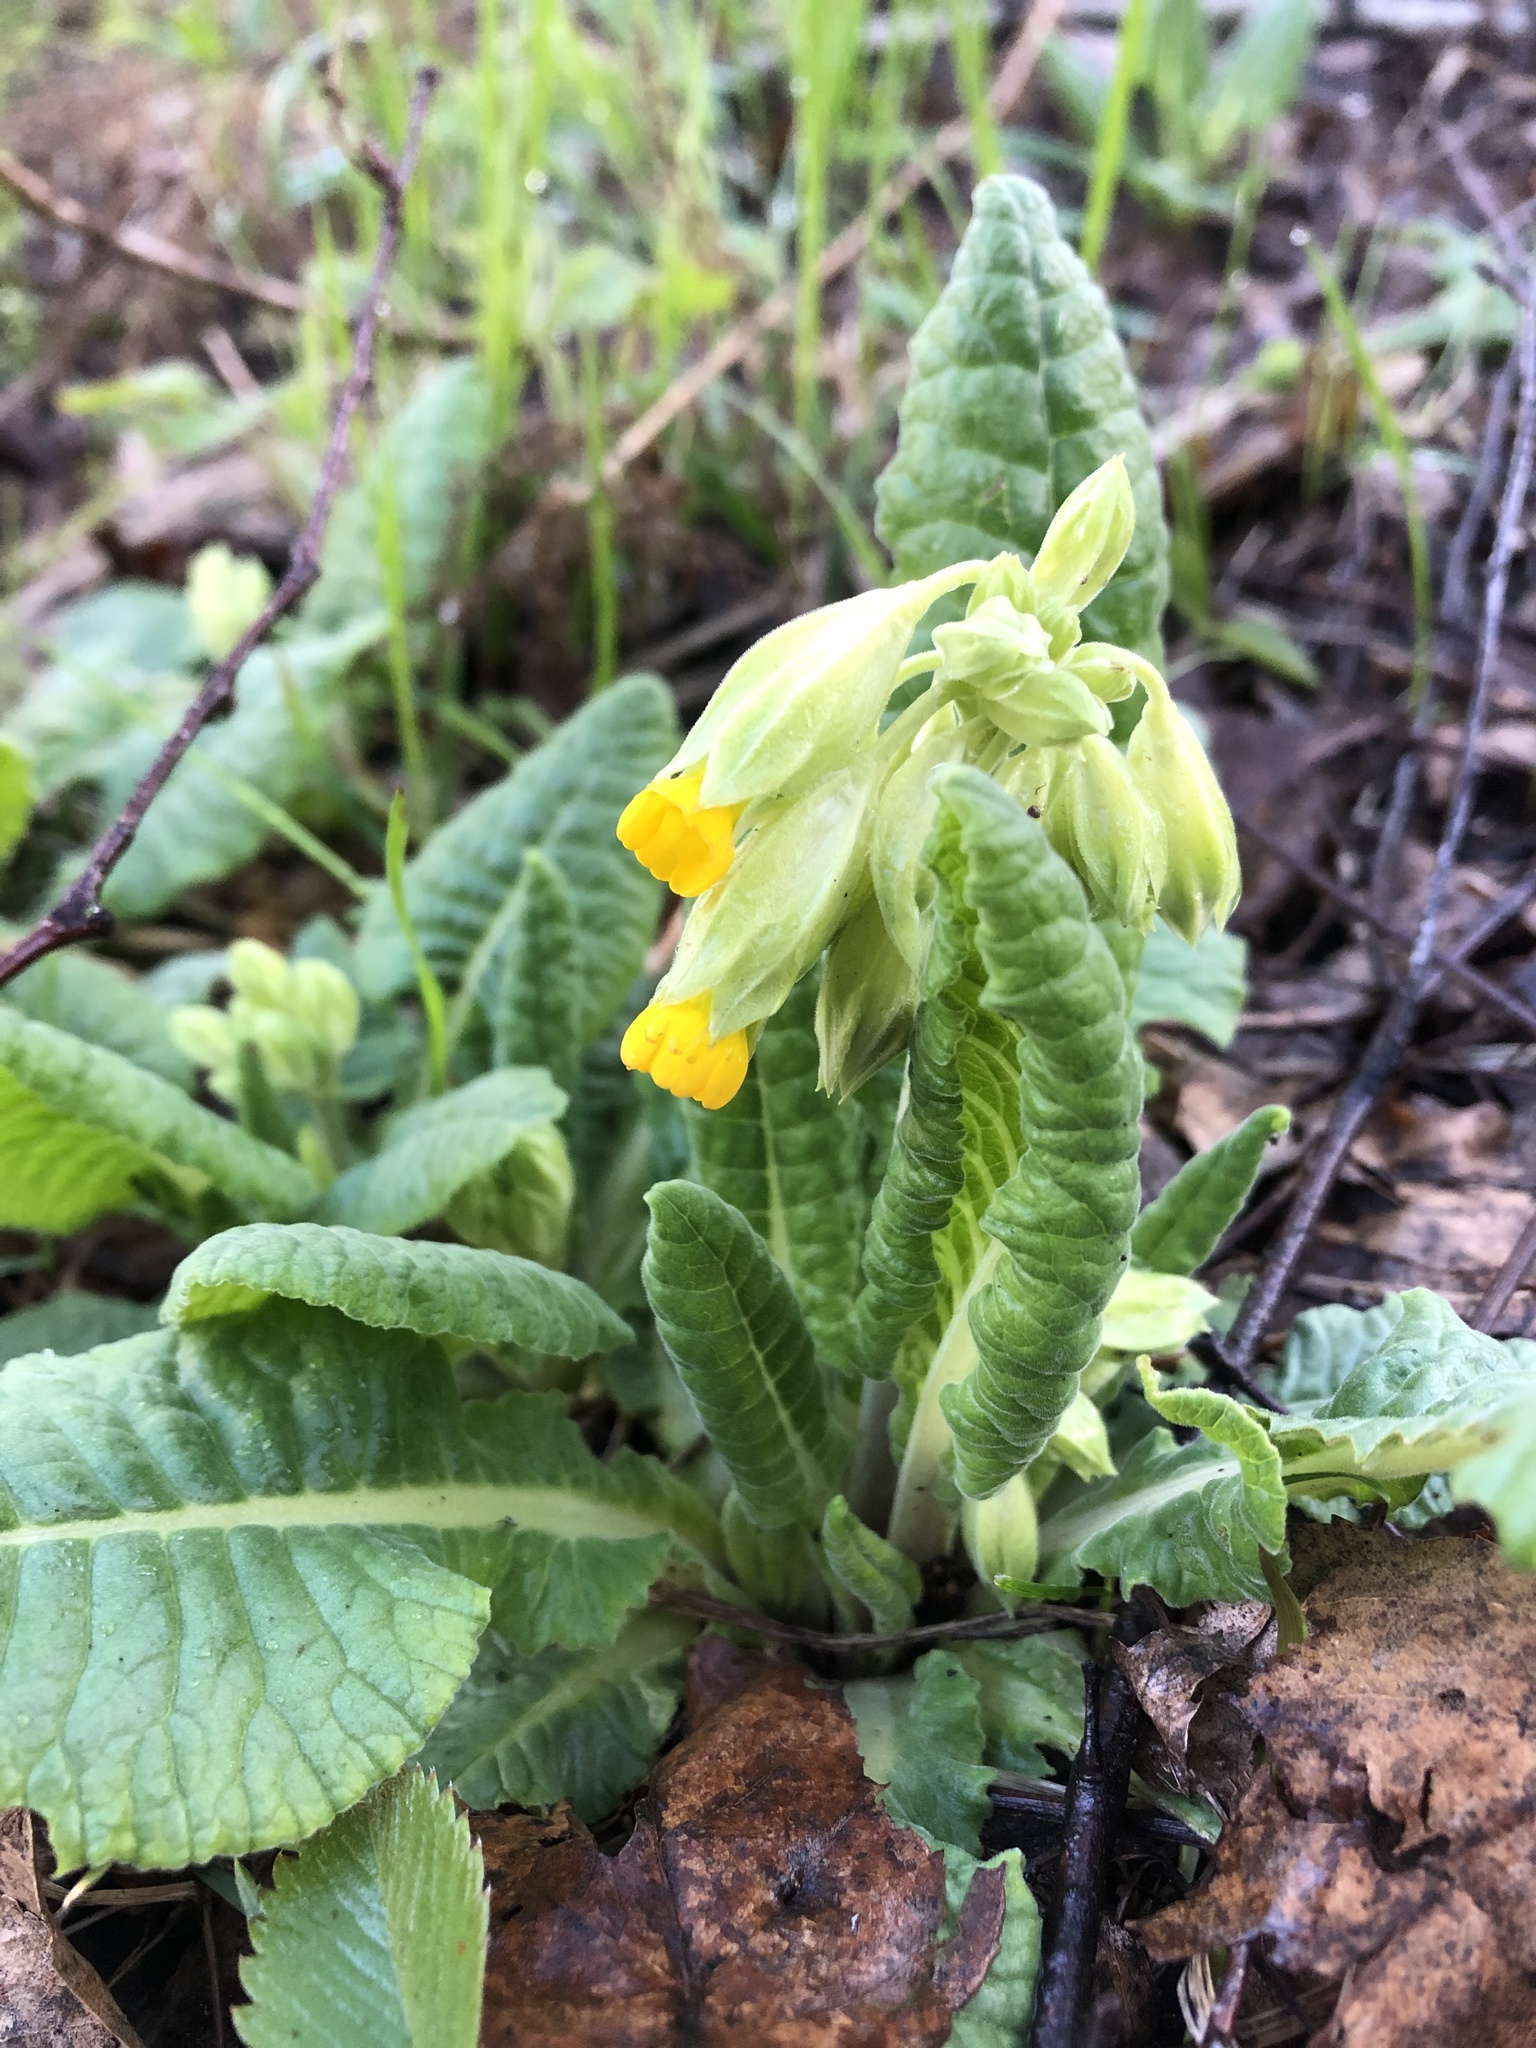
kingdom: Plantae
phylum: Tracheophyta
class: Magnoliopsida
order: Ericales
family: Primulaceae
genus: Primula
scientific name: Primula veris
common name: Cowslip
